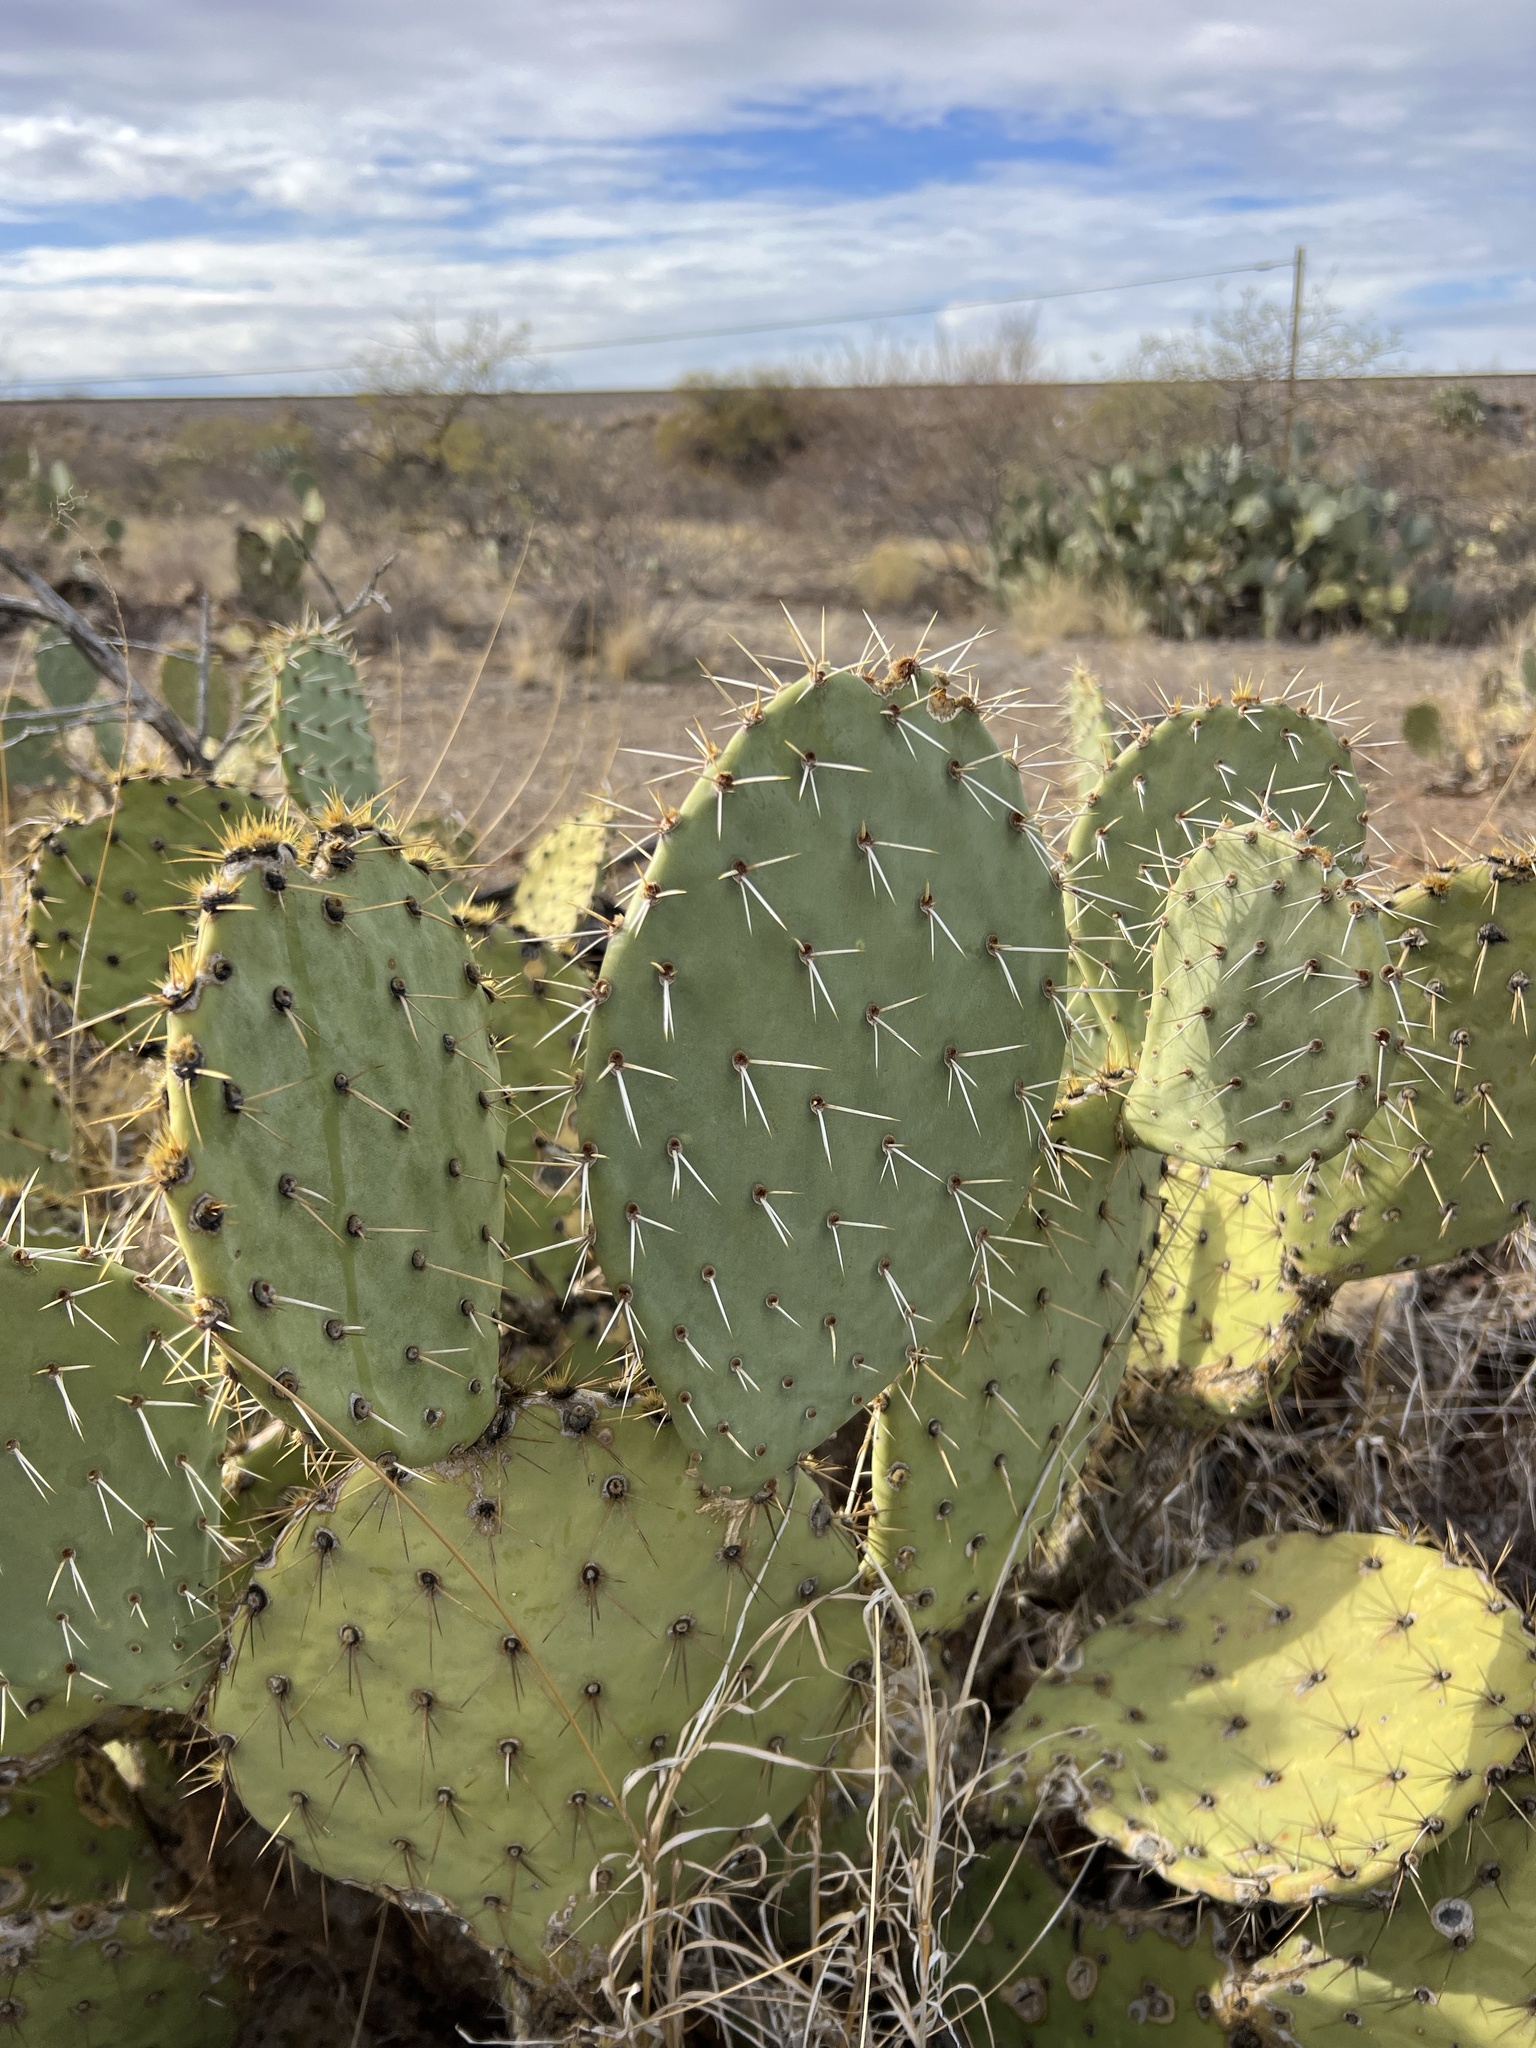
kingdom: Plantae
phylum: Tracheophyta
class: Magnoliopsida
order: Caryophyllales
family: Cactaceae
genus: Opuntia
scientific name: Opuntia engelmannii
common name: Cactus-apple
